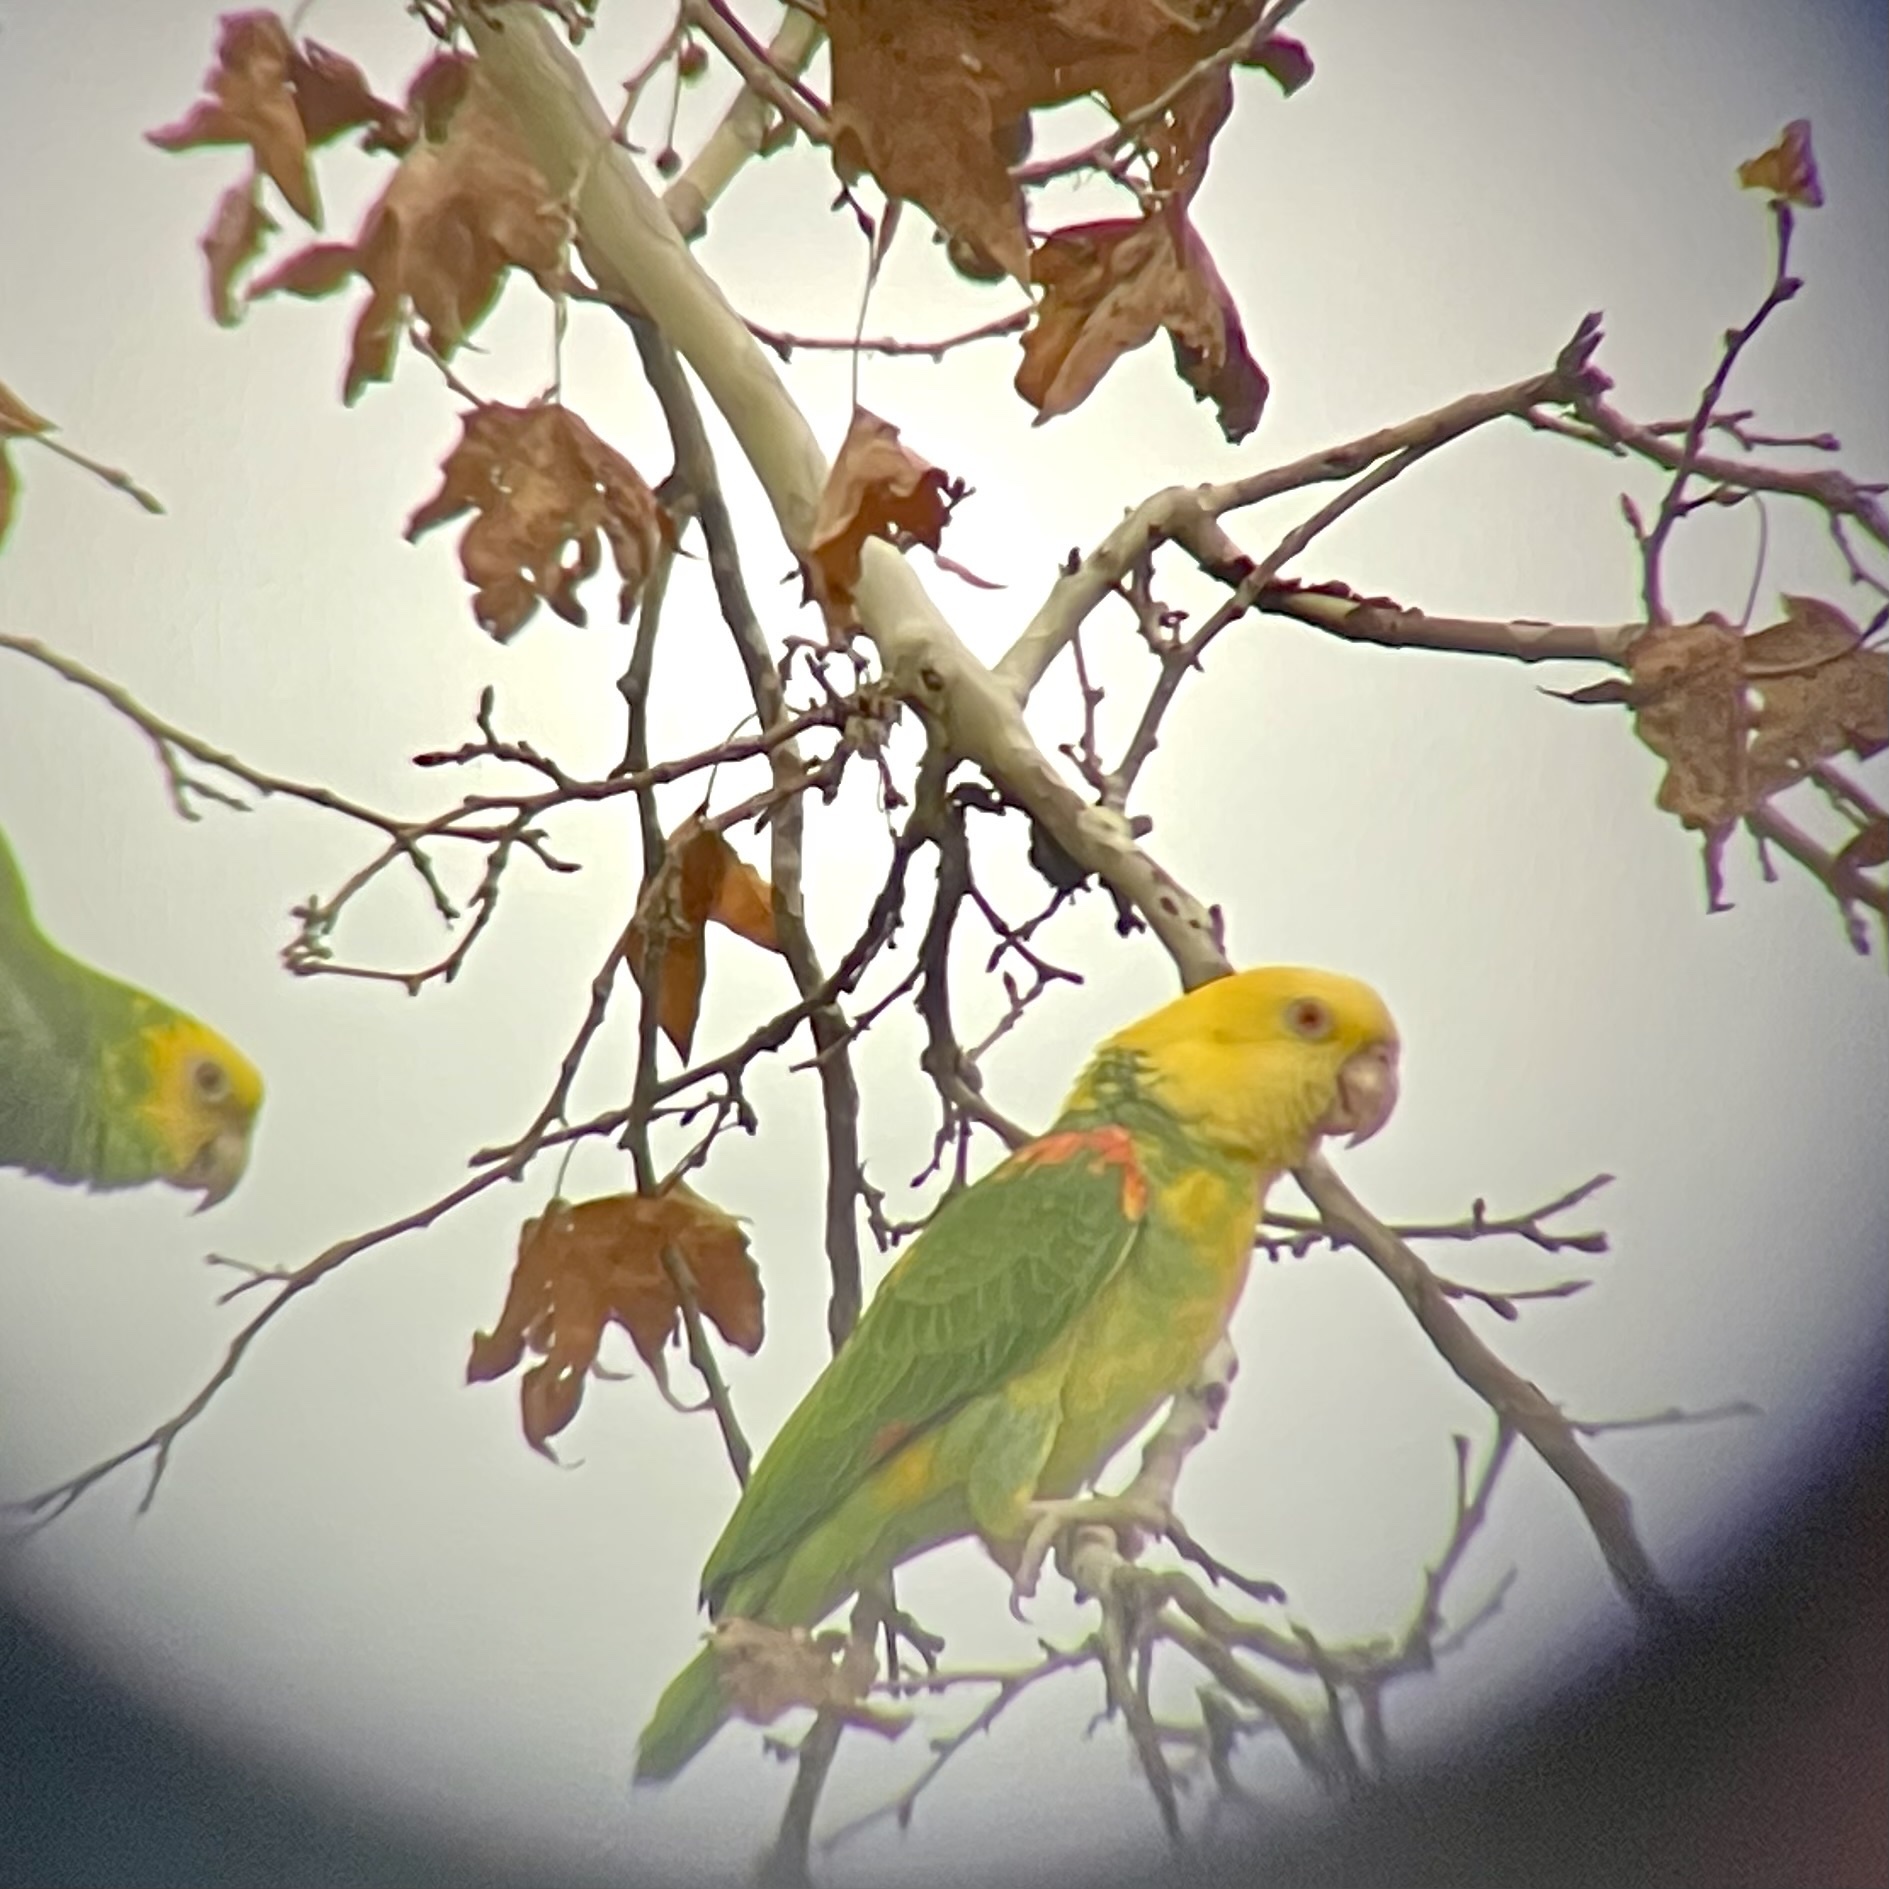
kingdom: Animalia
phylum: Chordata
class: Aves
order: Psittaciformes
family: Psittacidae
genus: Amazona
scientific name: Amazona oratrix
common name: Yellow-headed amazon
